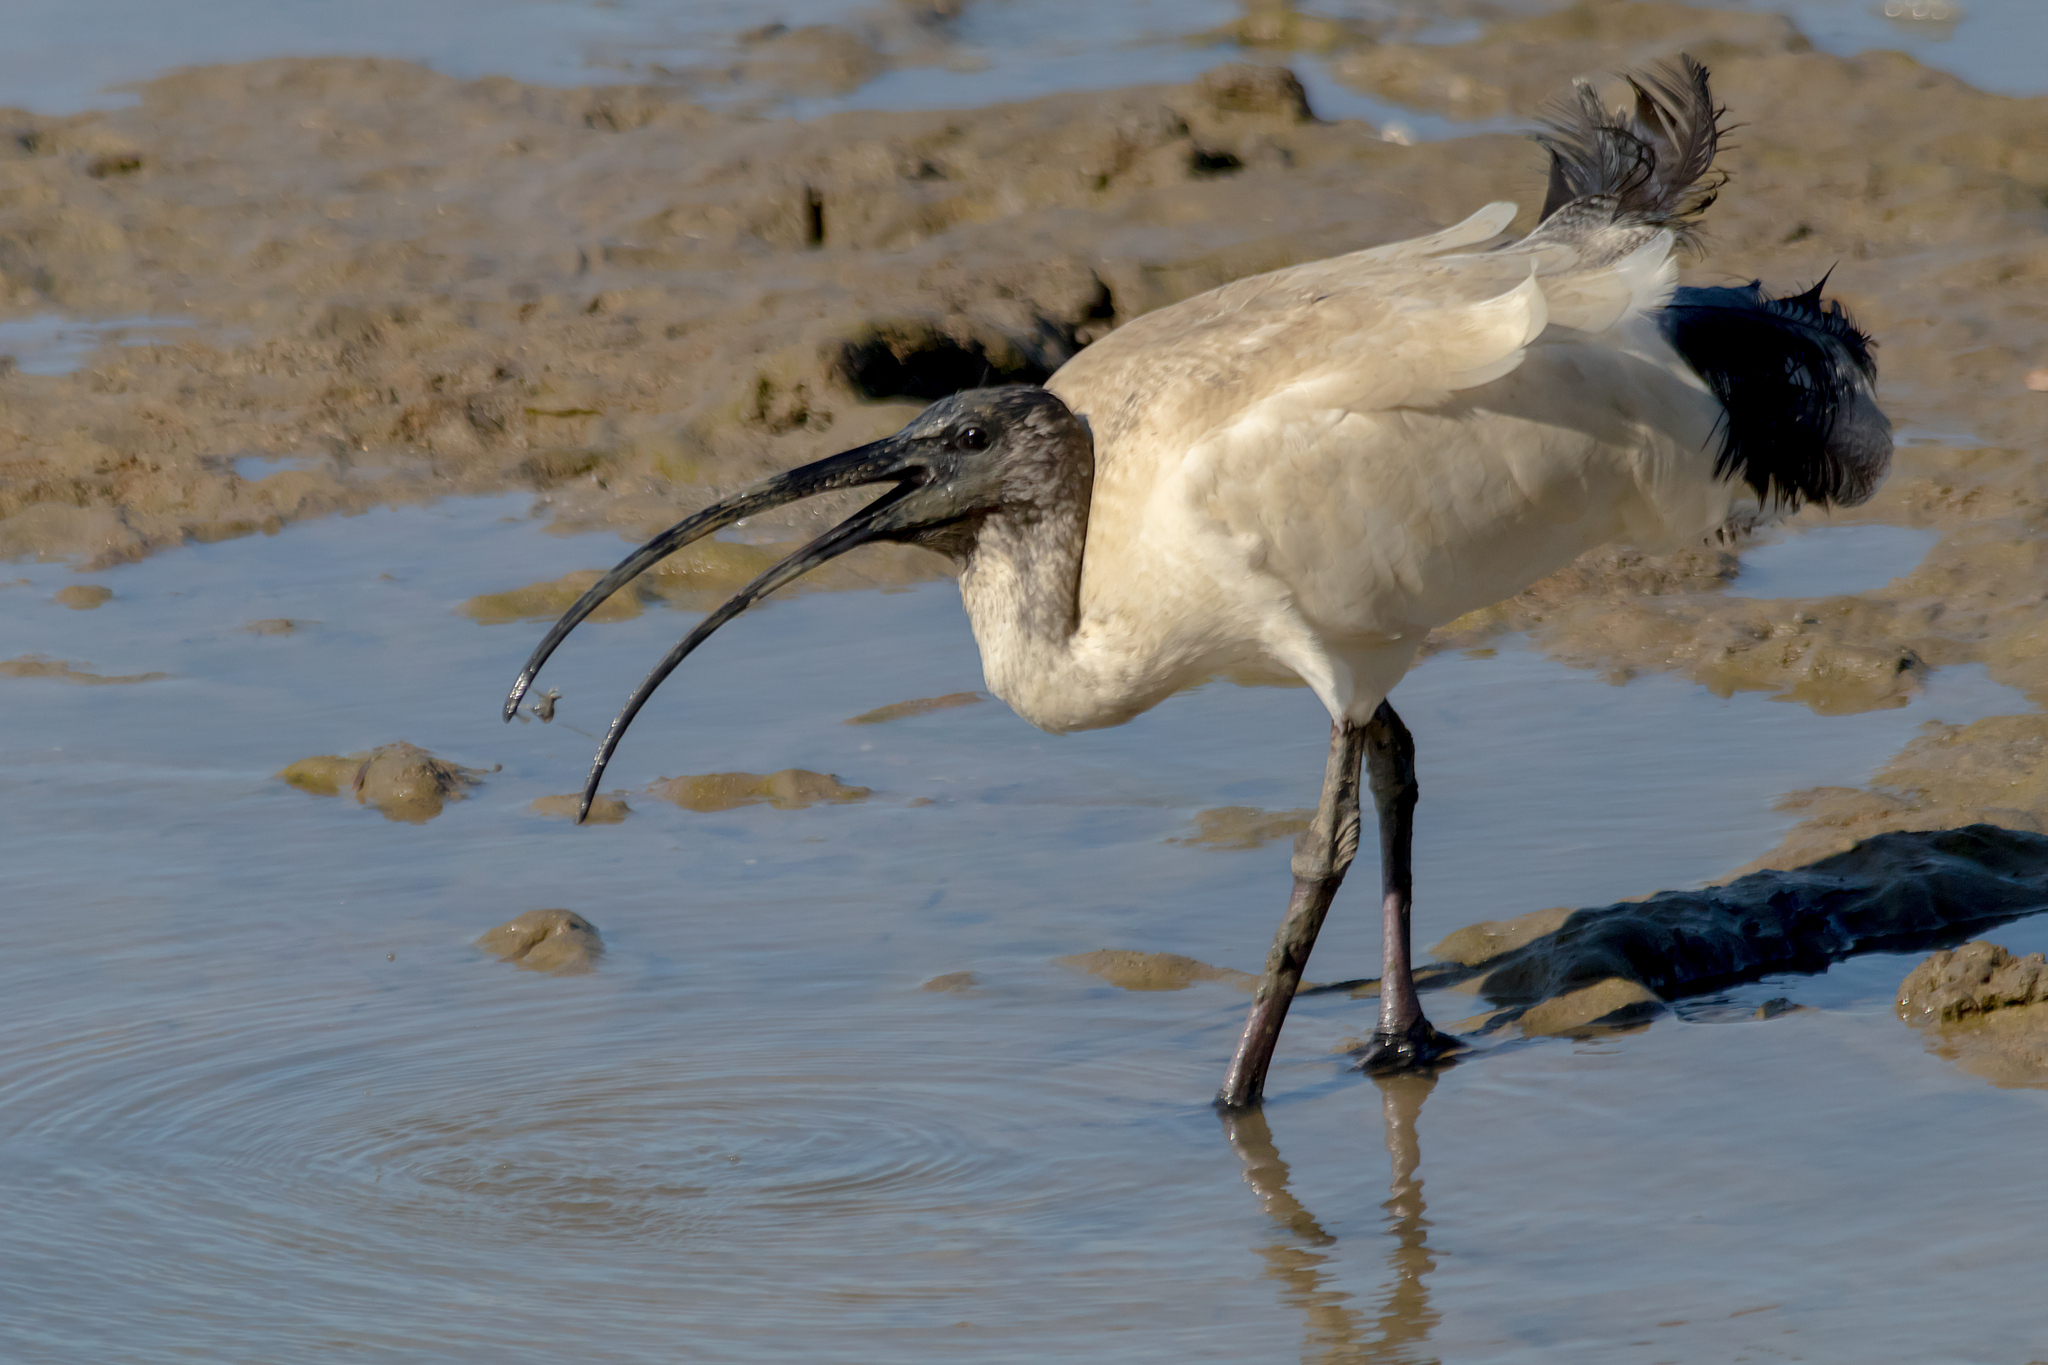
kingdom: Animalia
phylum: Chordata
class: Aves
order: Pelecaniformes
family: Threskiornithidae
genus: Threskiornis
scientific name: Threskiornis molucca
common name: Australian white ibis
